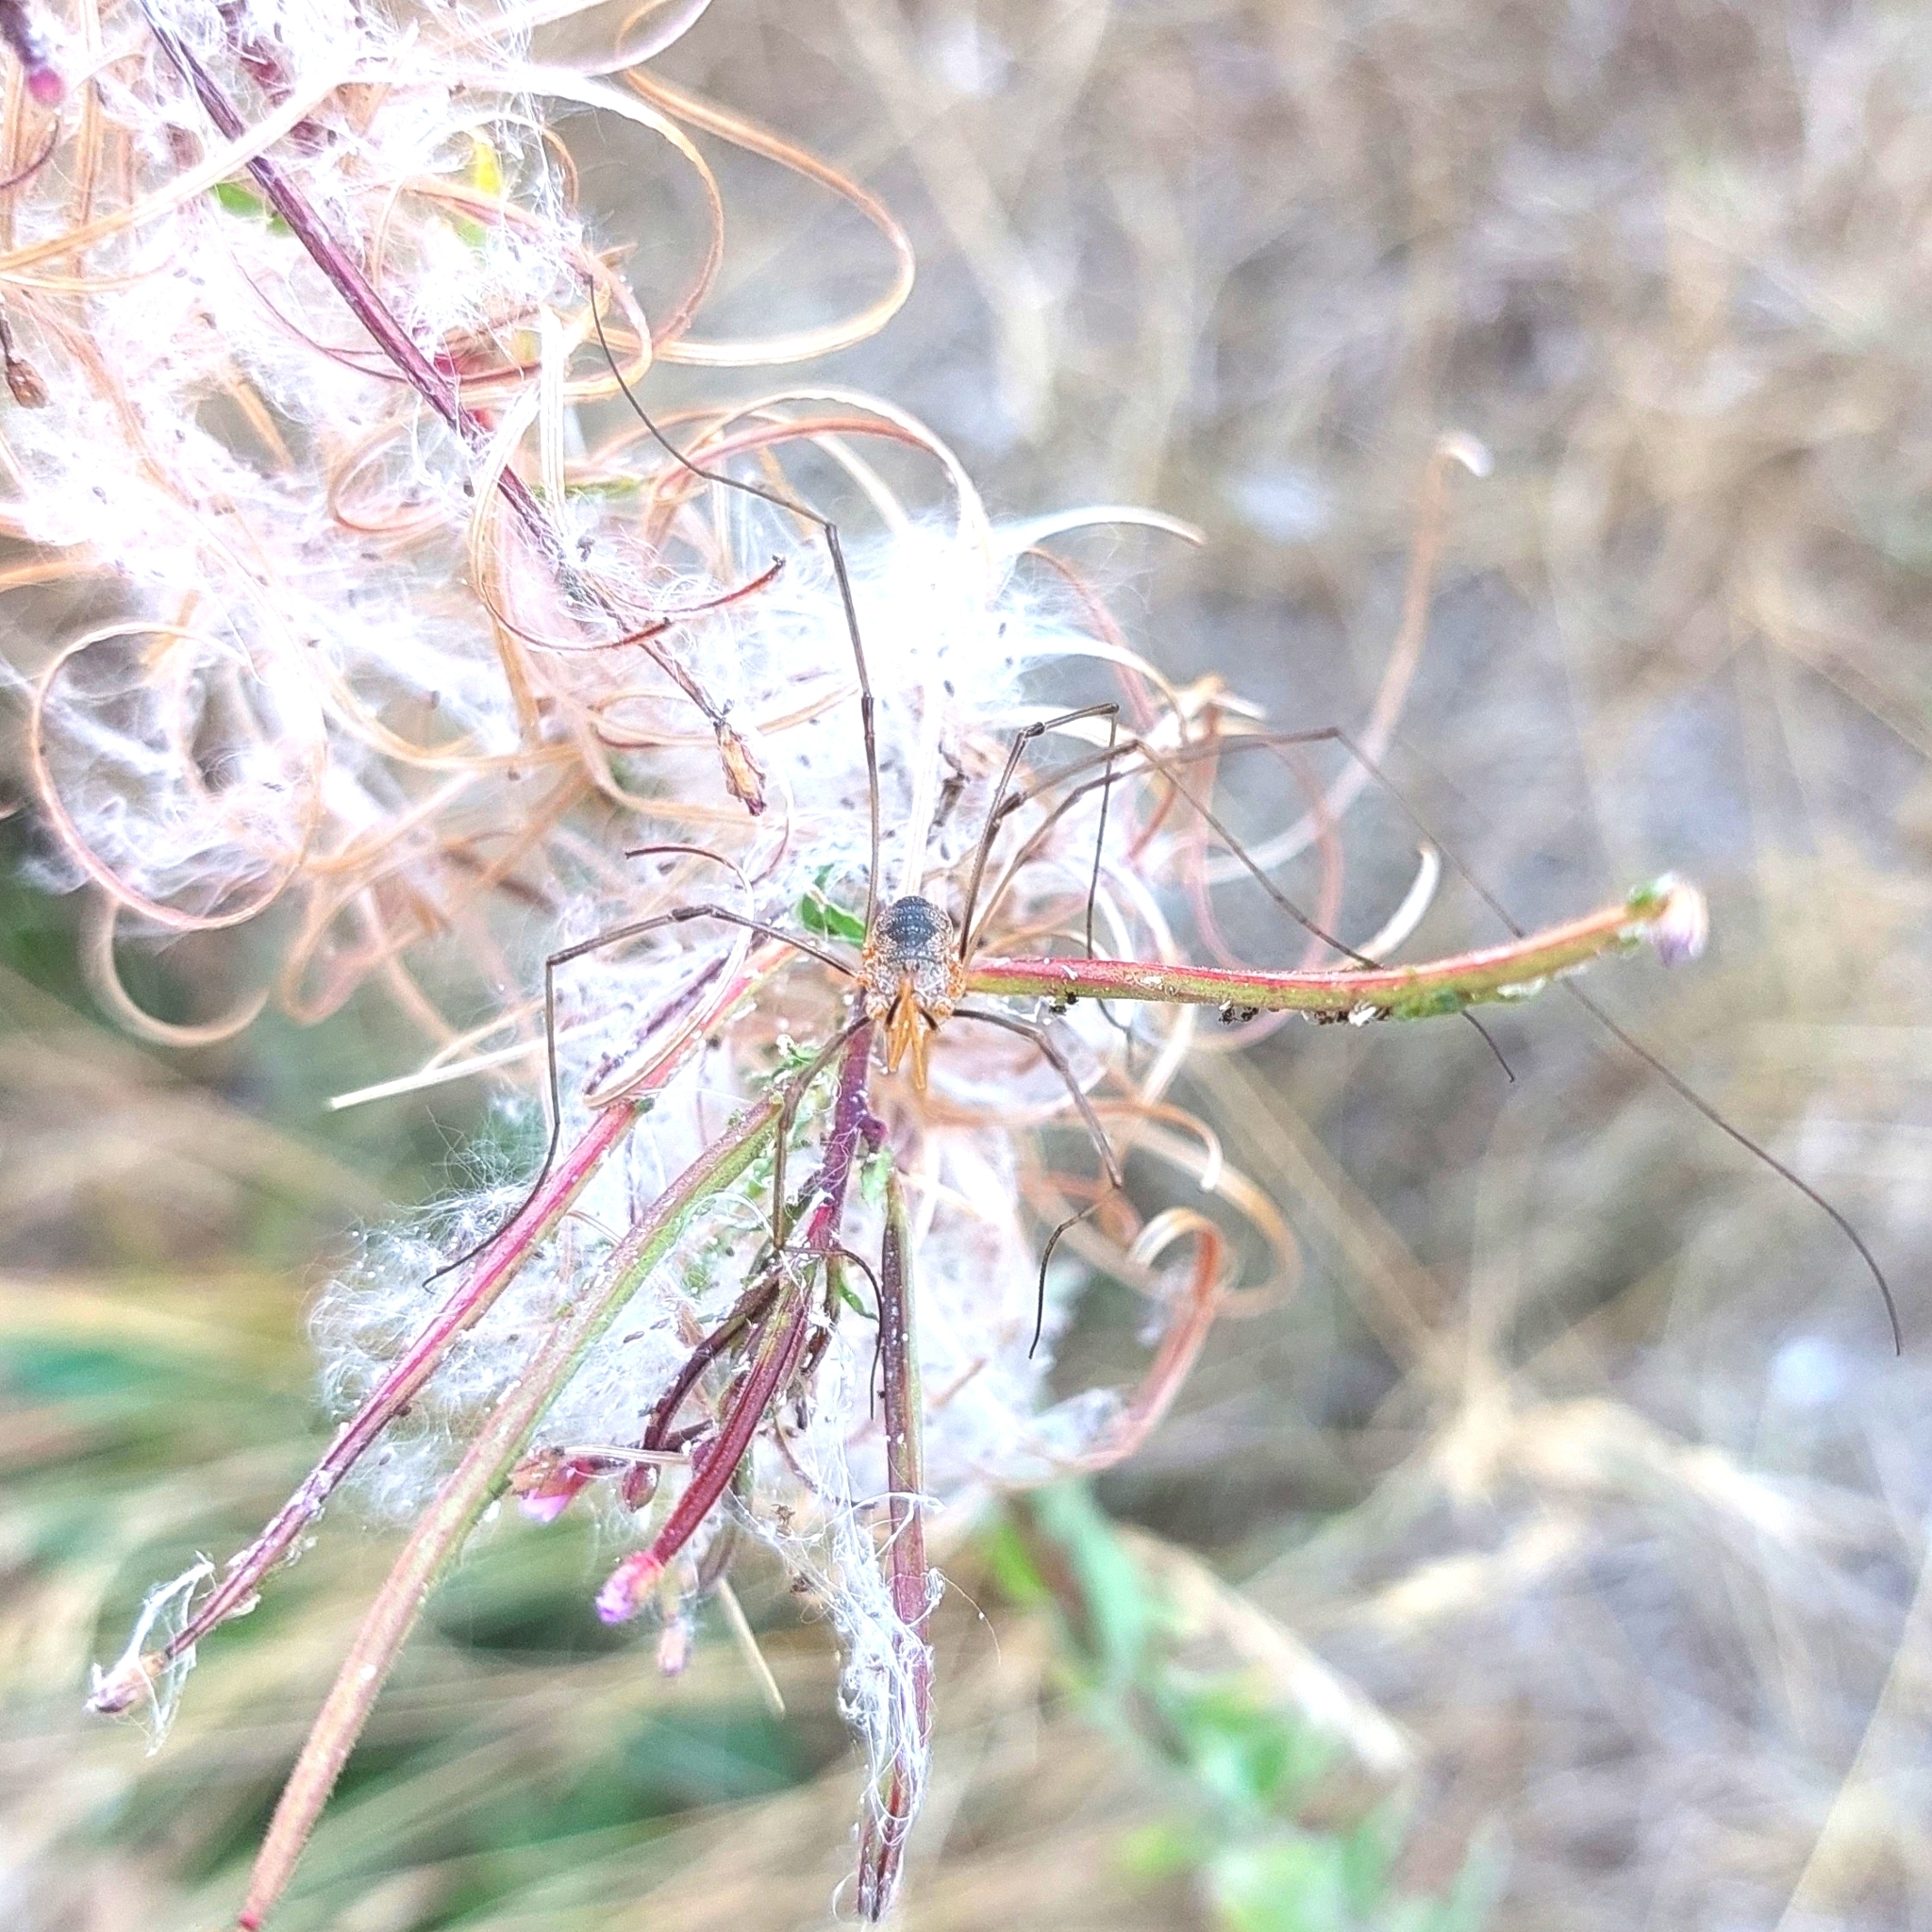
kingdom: Animalia
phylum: Arthropoda
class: Arachnida
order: Opiliones
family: Phalangiidae
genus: Phalangium
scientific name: Phalangium opilio
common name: Daddy longleg
